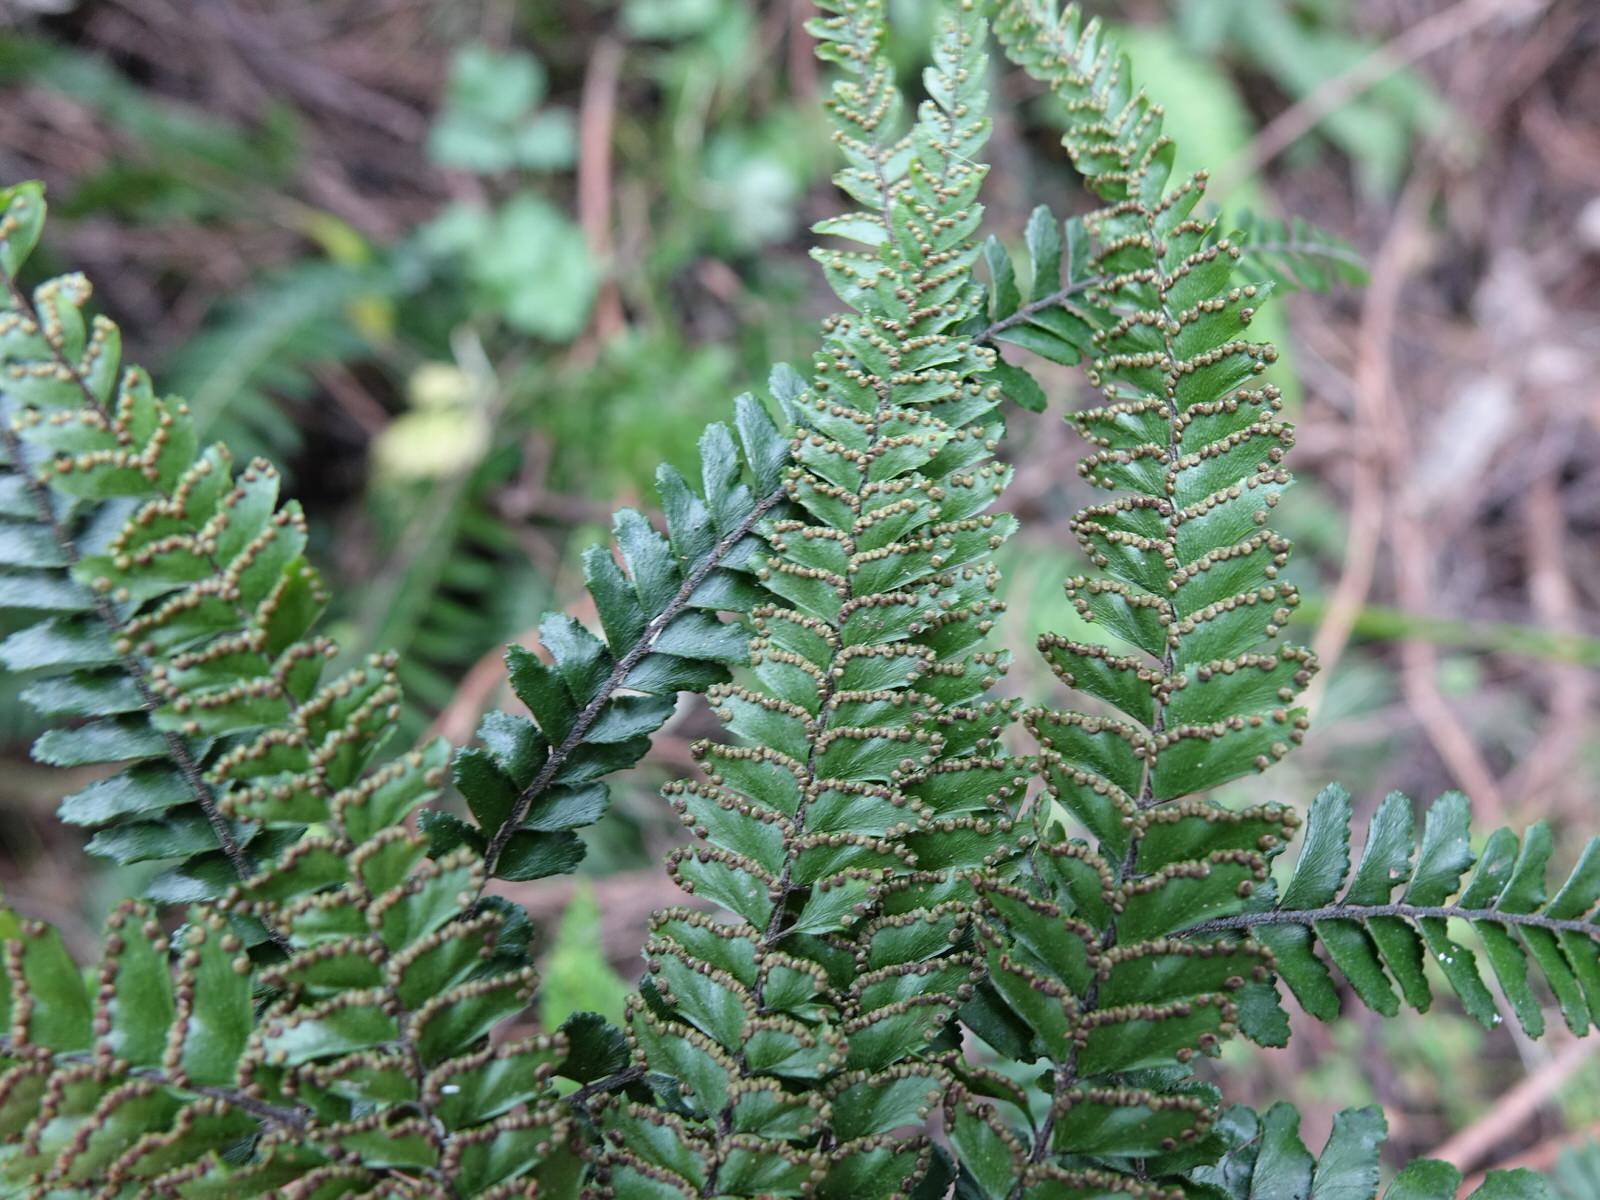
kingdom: Plantae
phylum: Tracheophyta
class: Polypodiopsida
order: Polypodiales
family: Pteridaceae
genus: Adiantum
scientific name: Adiantum hispidulum
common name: Rough maidenhair
